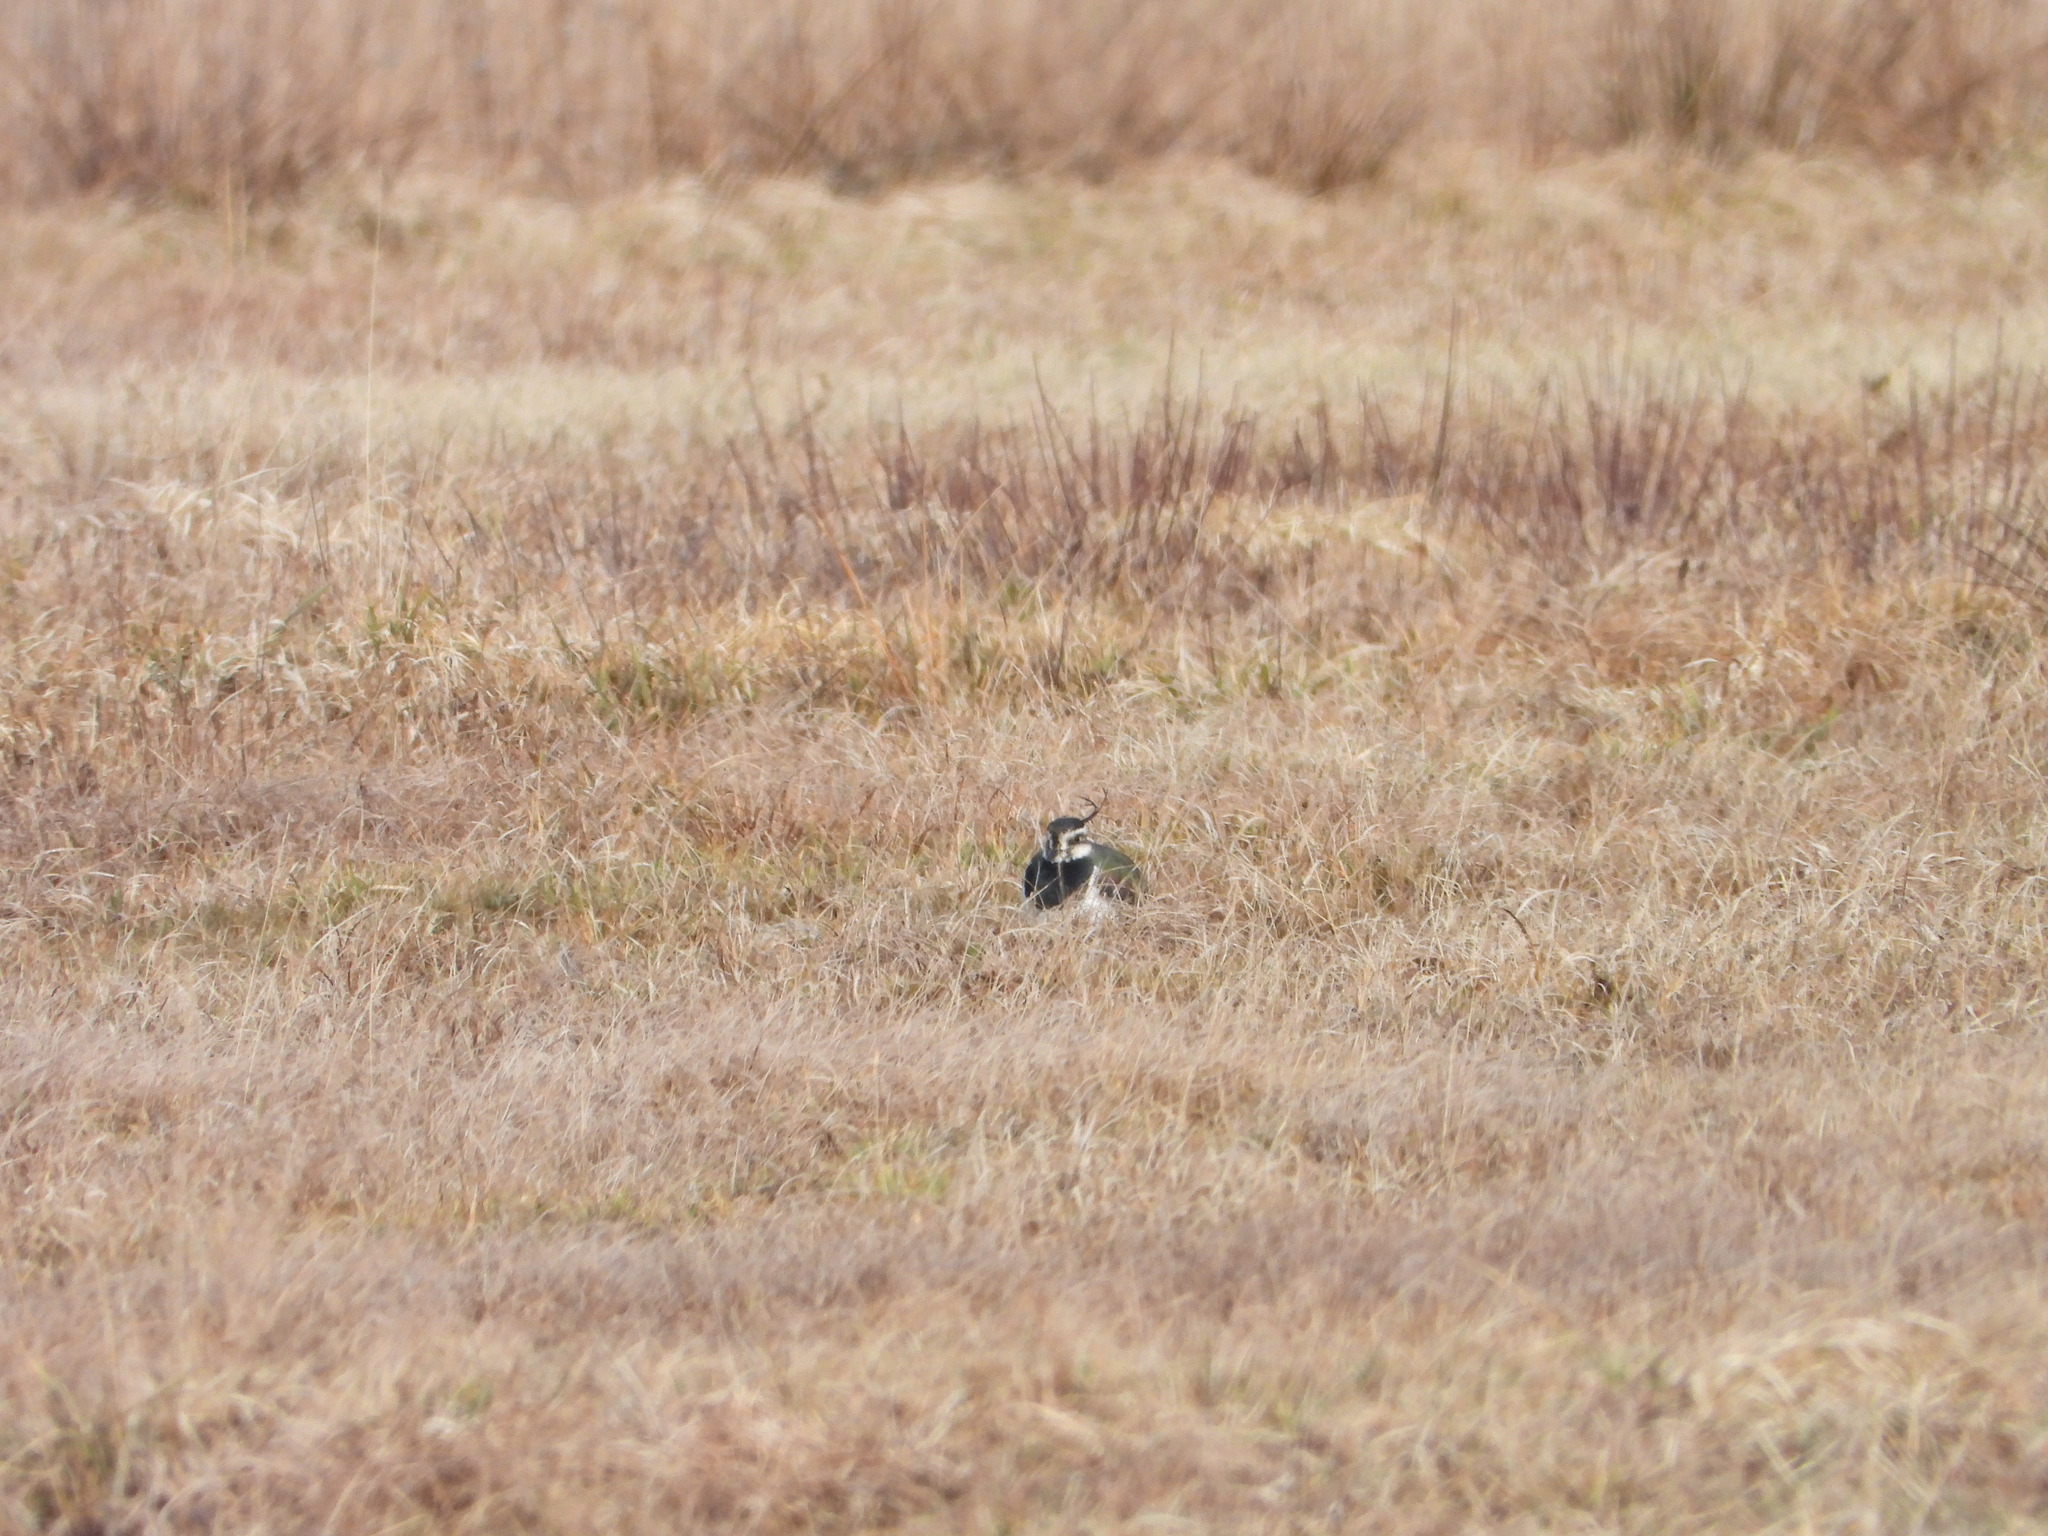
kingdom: Animalia
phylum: Chordata
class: Aves
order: Charadriiformes
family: Charadriidae
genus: Vanellus
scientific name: Vanellus vanellus
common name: Northern lapwing
